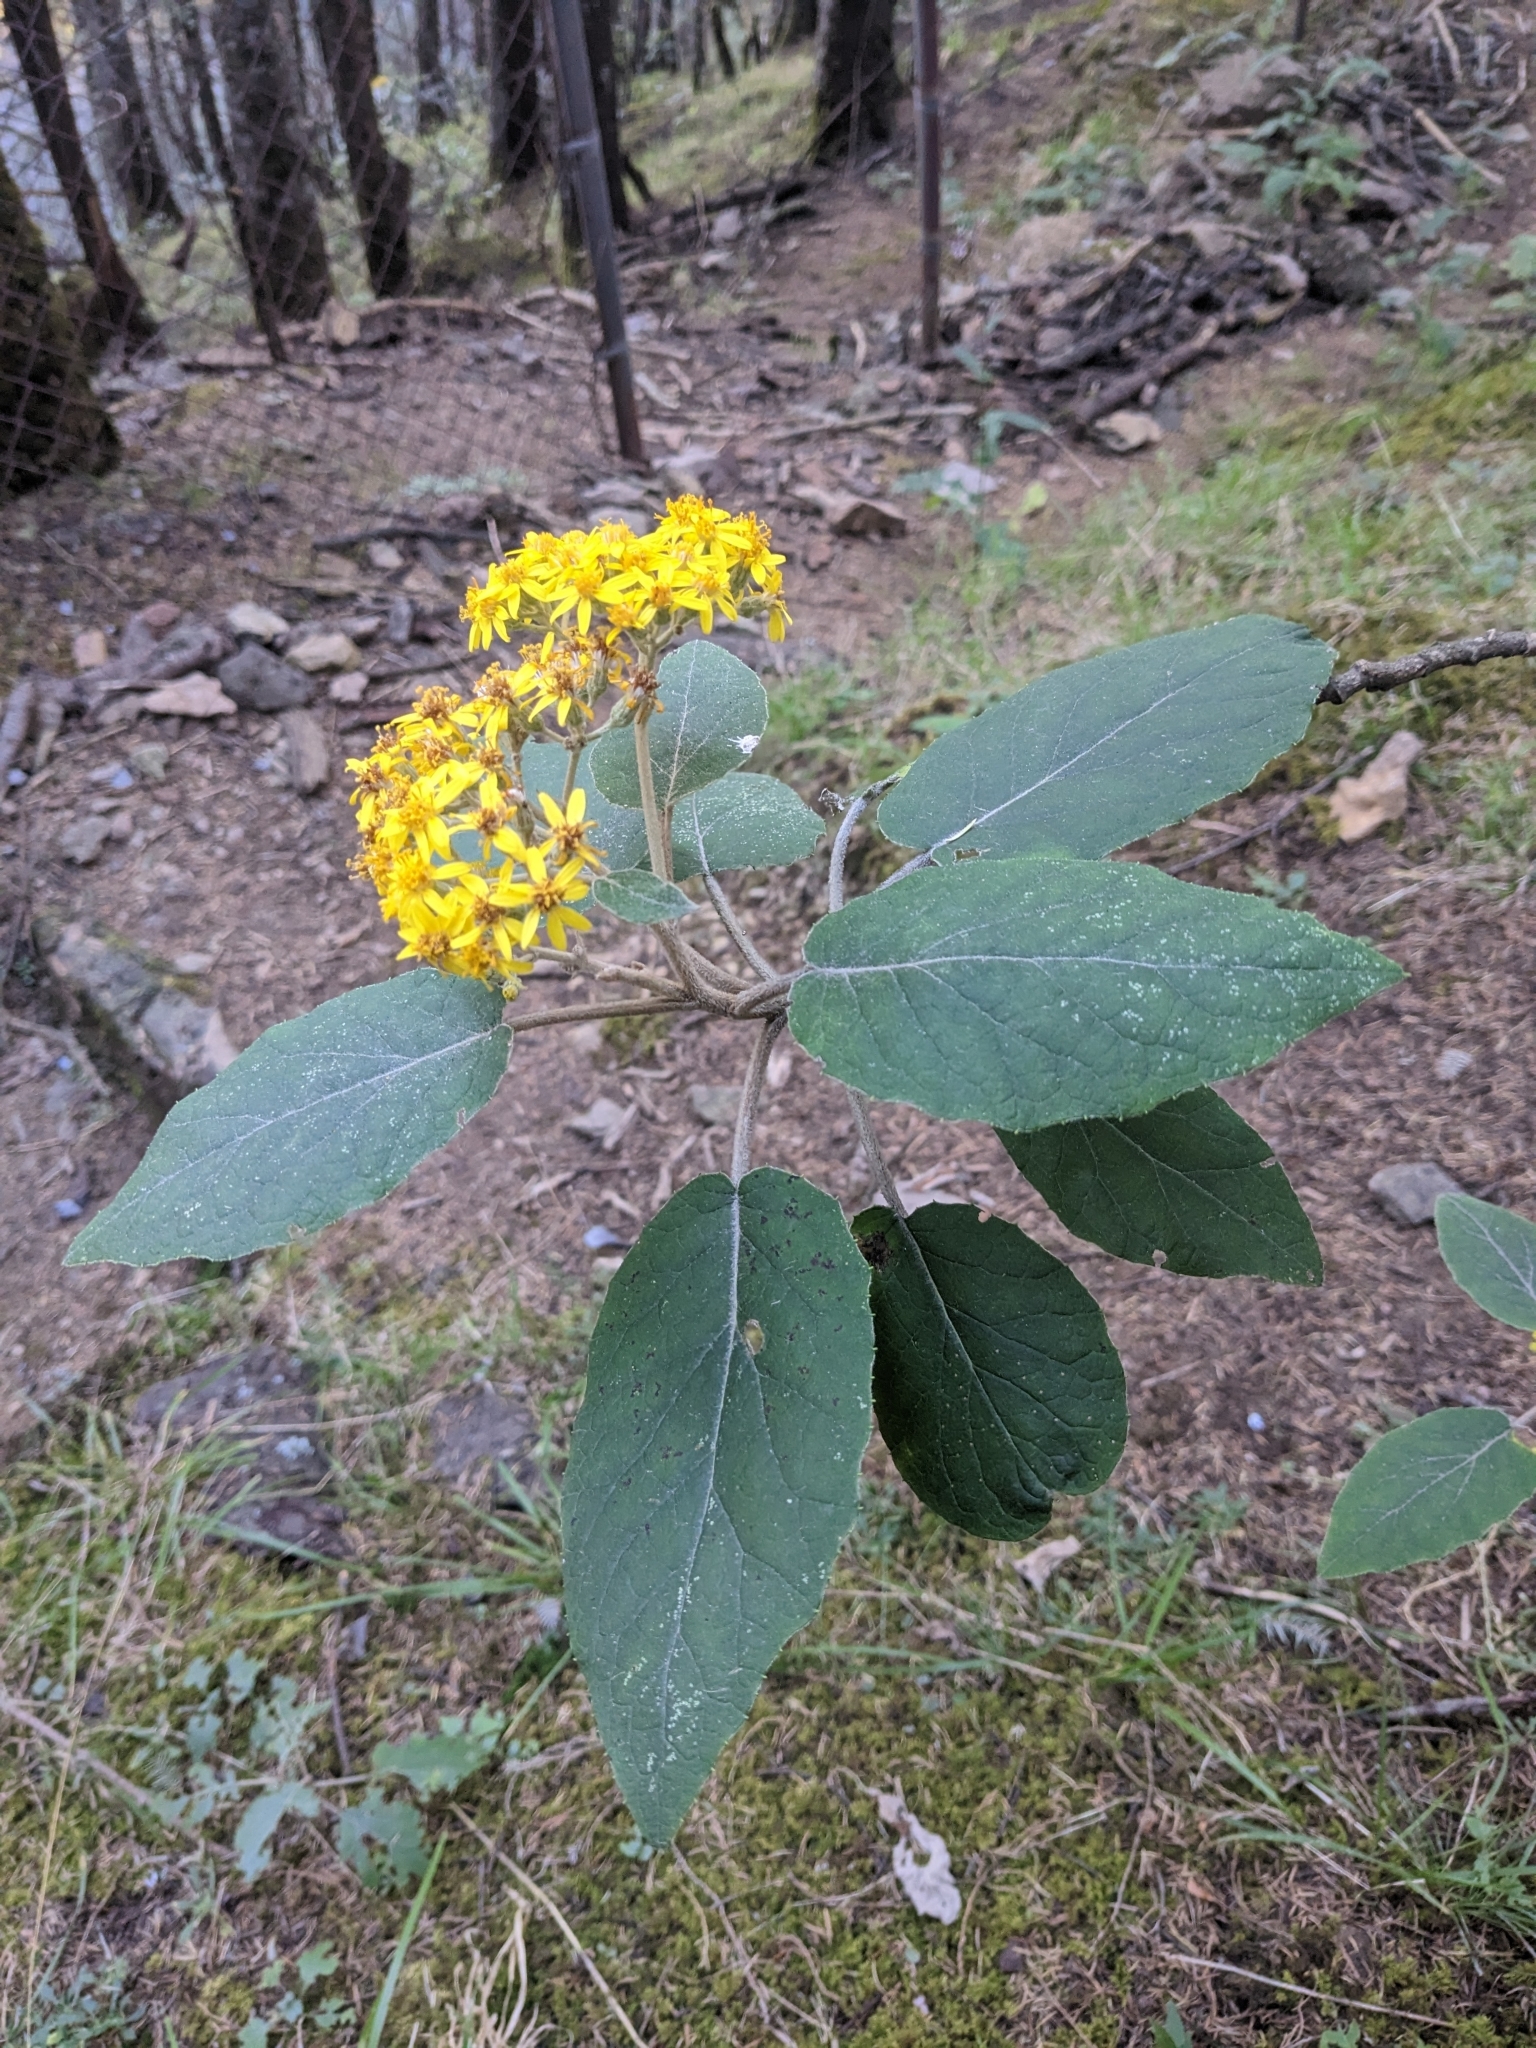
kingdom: Plantae
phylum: Tracheophyta
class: Magnoliopsida
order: Asterales
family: Asteraceae
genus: Roldana
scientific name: Roldana barba-johannis
